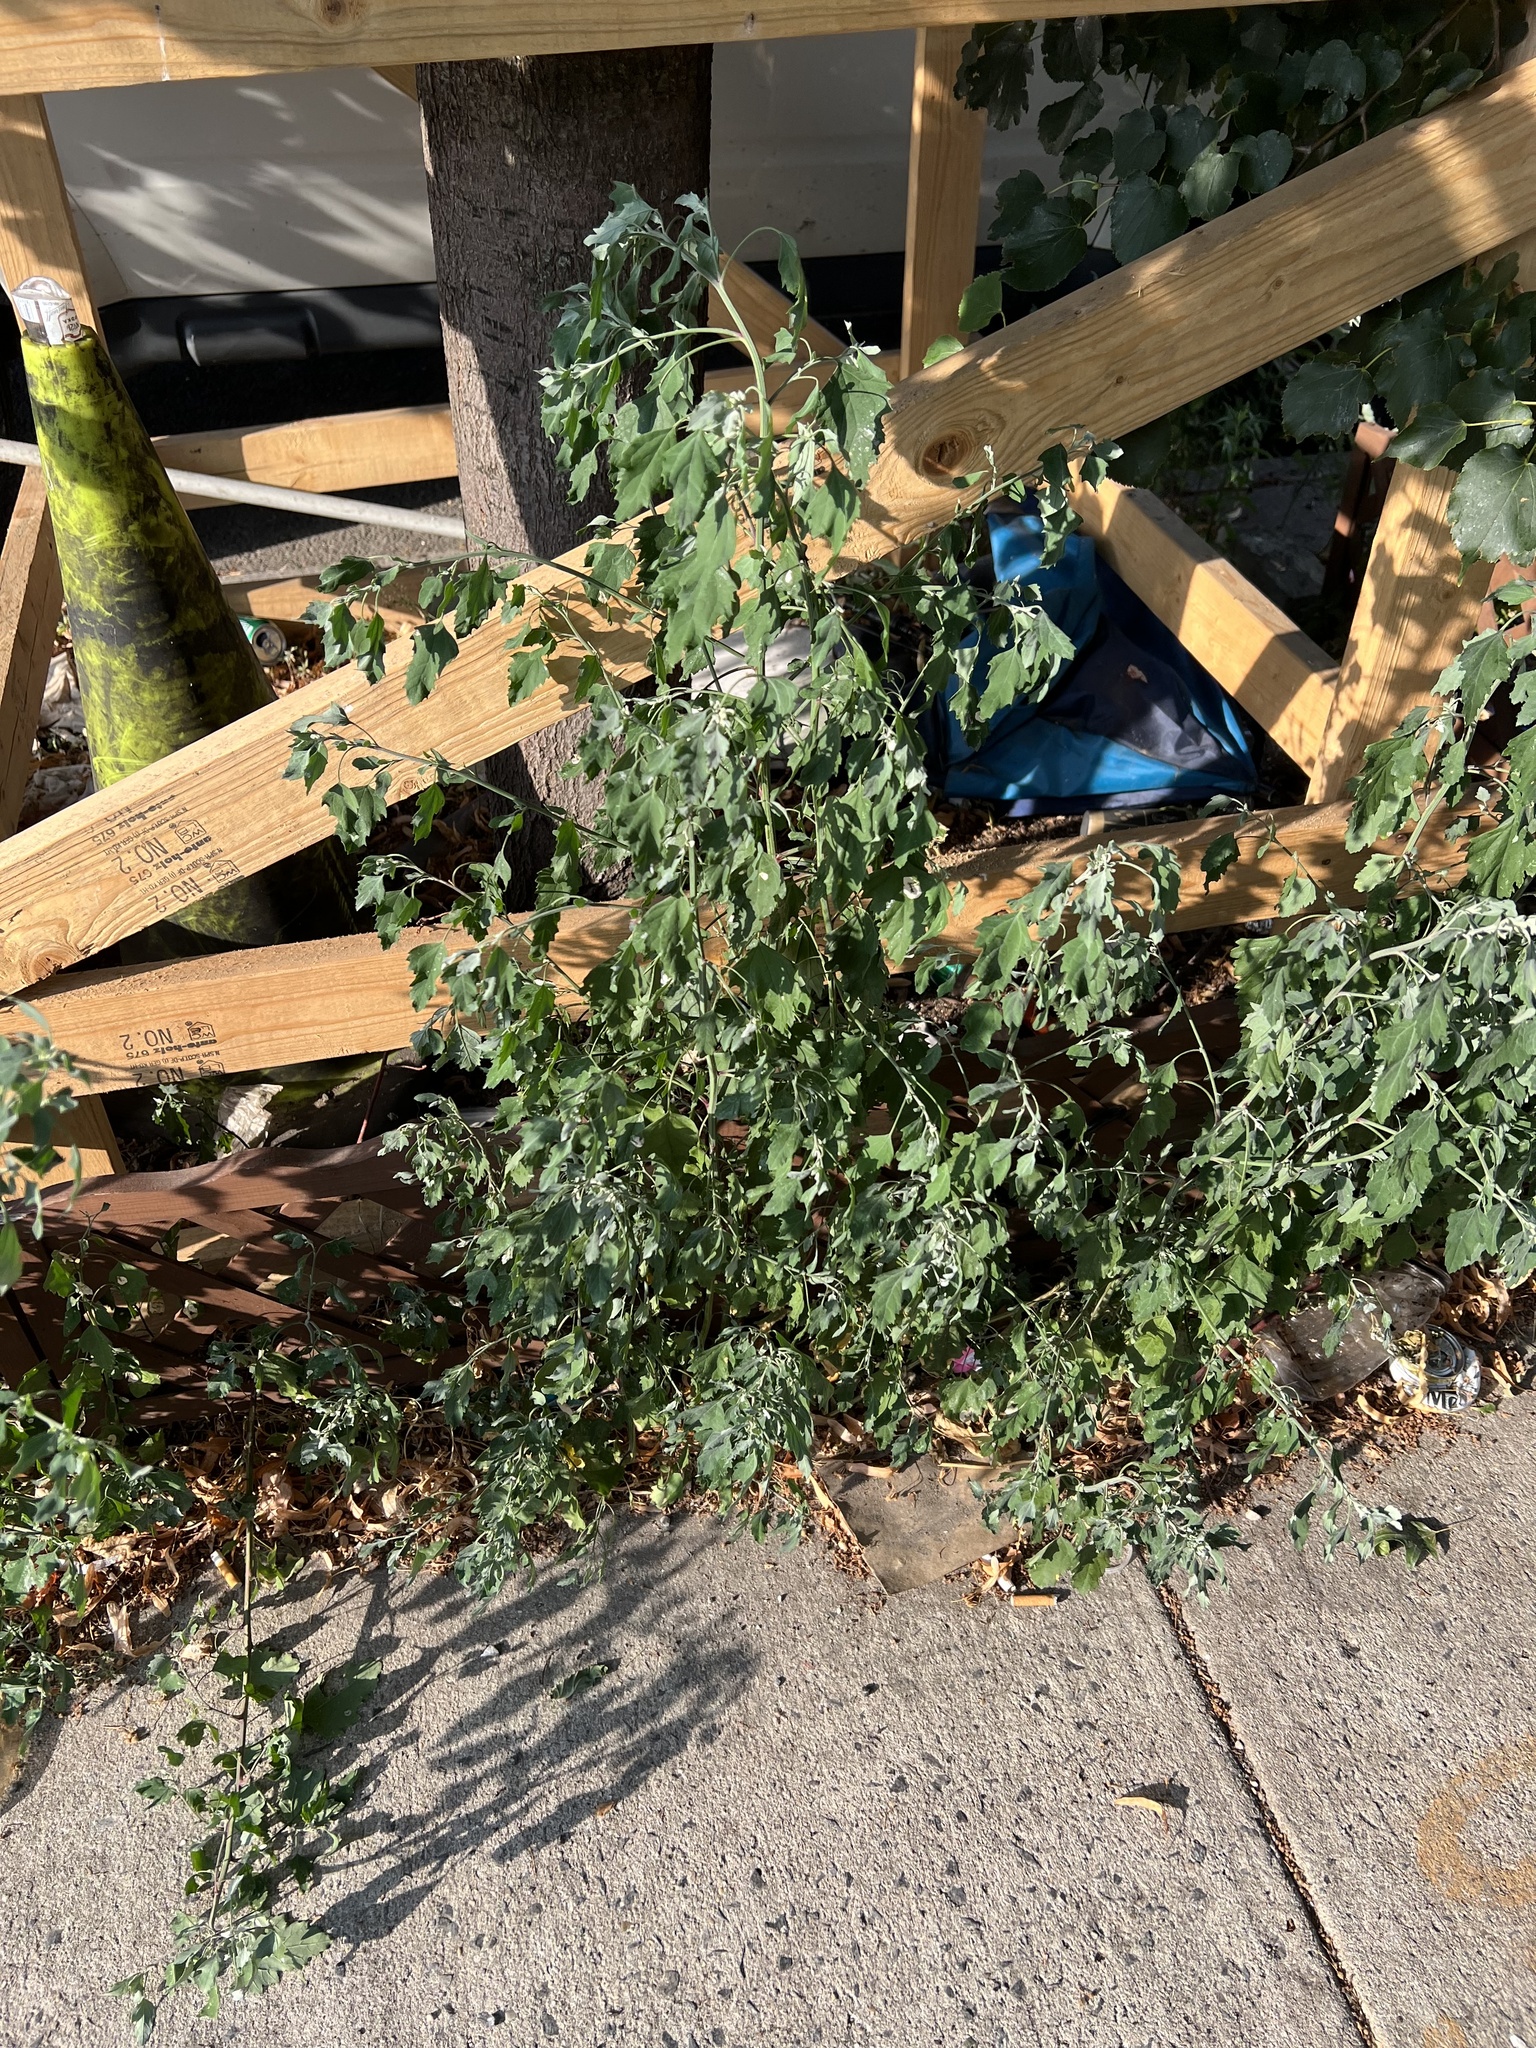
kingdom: Plantae
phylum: Tracheophyta
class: Magnoliopsida
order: Caryophyllales
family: Amaranthaceae
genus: Chenopodium
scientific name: Chenopodium album
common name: Fat-hen
